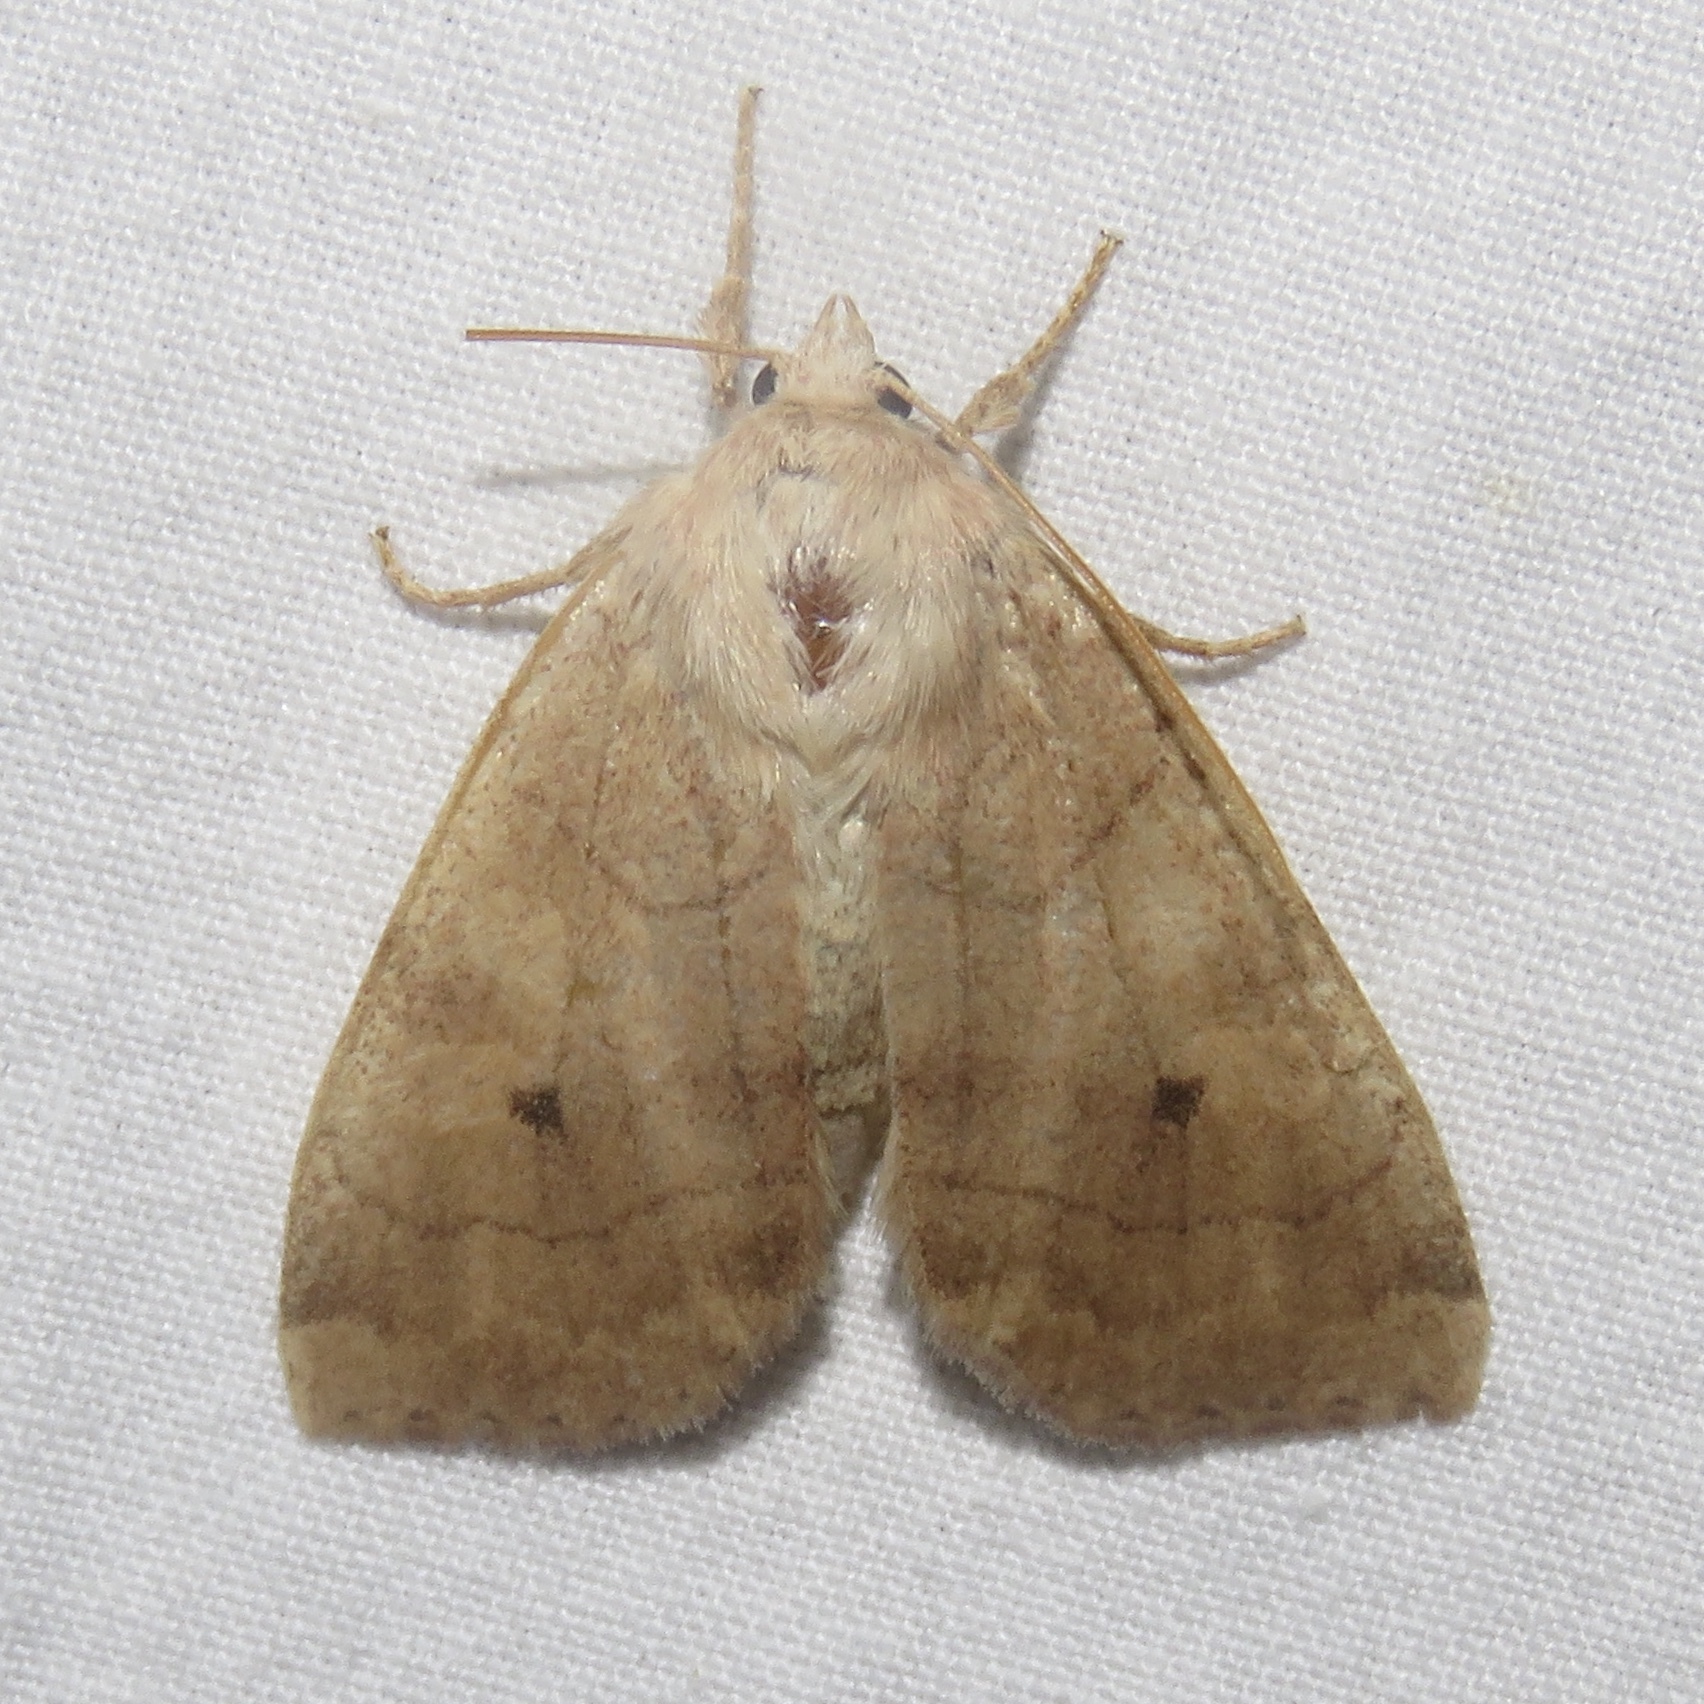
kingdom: Animalia
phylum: Arthropoda
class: Insecta
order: Lepidoptera
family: Noctuidae
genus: Enargia
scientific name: Enargia infumata
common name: Smoked sallow
